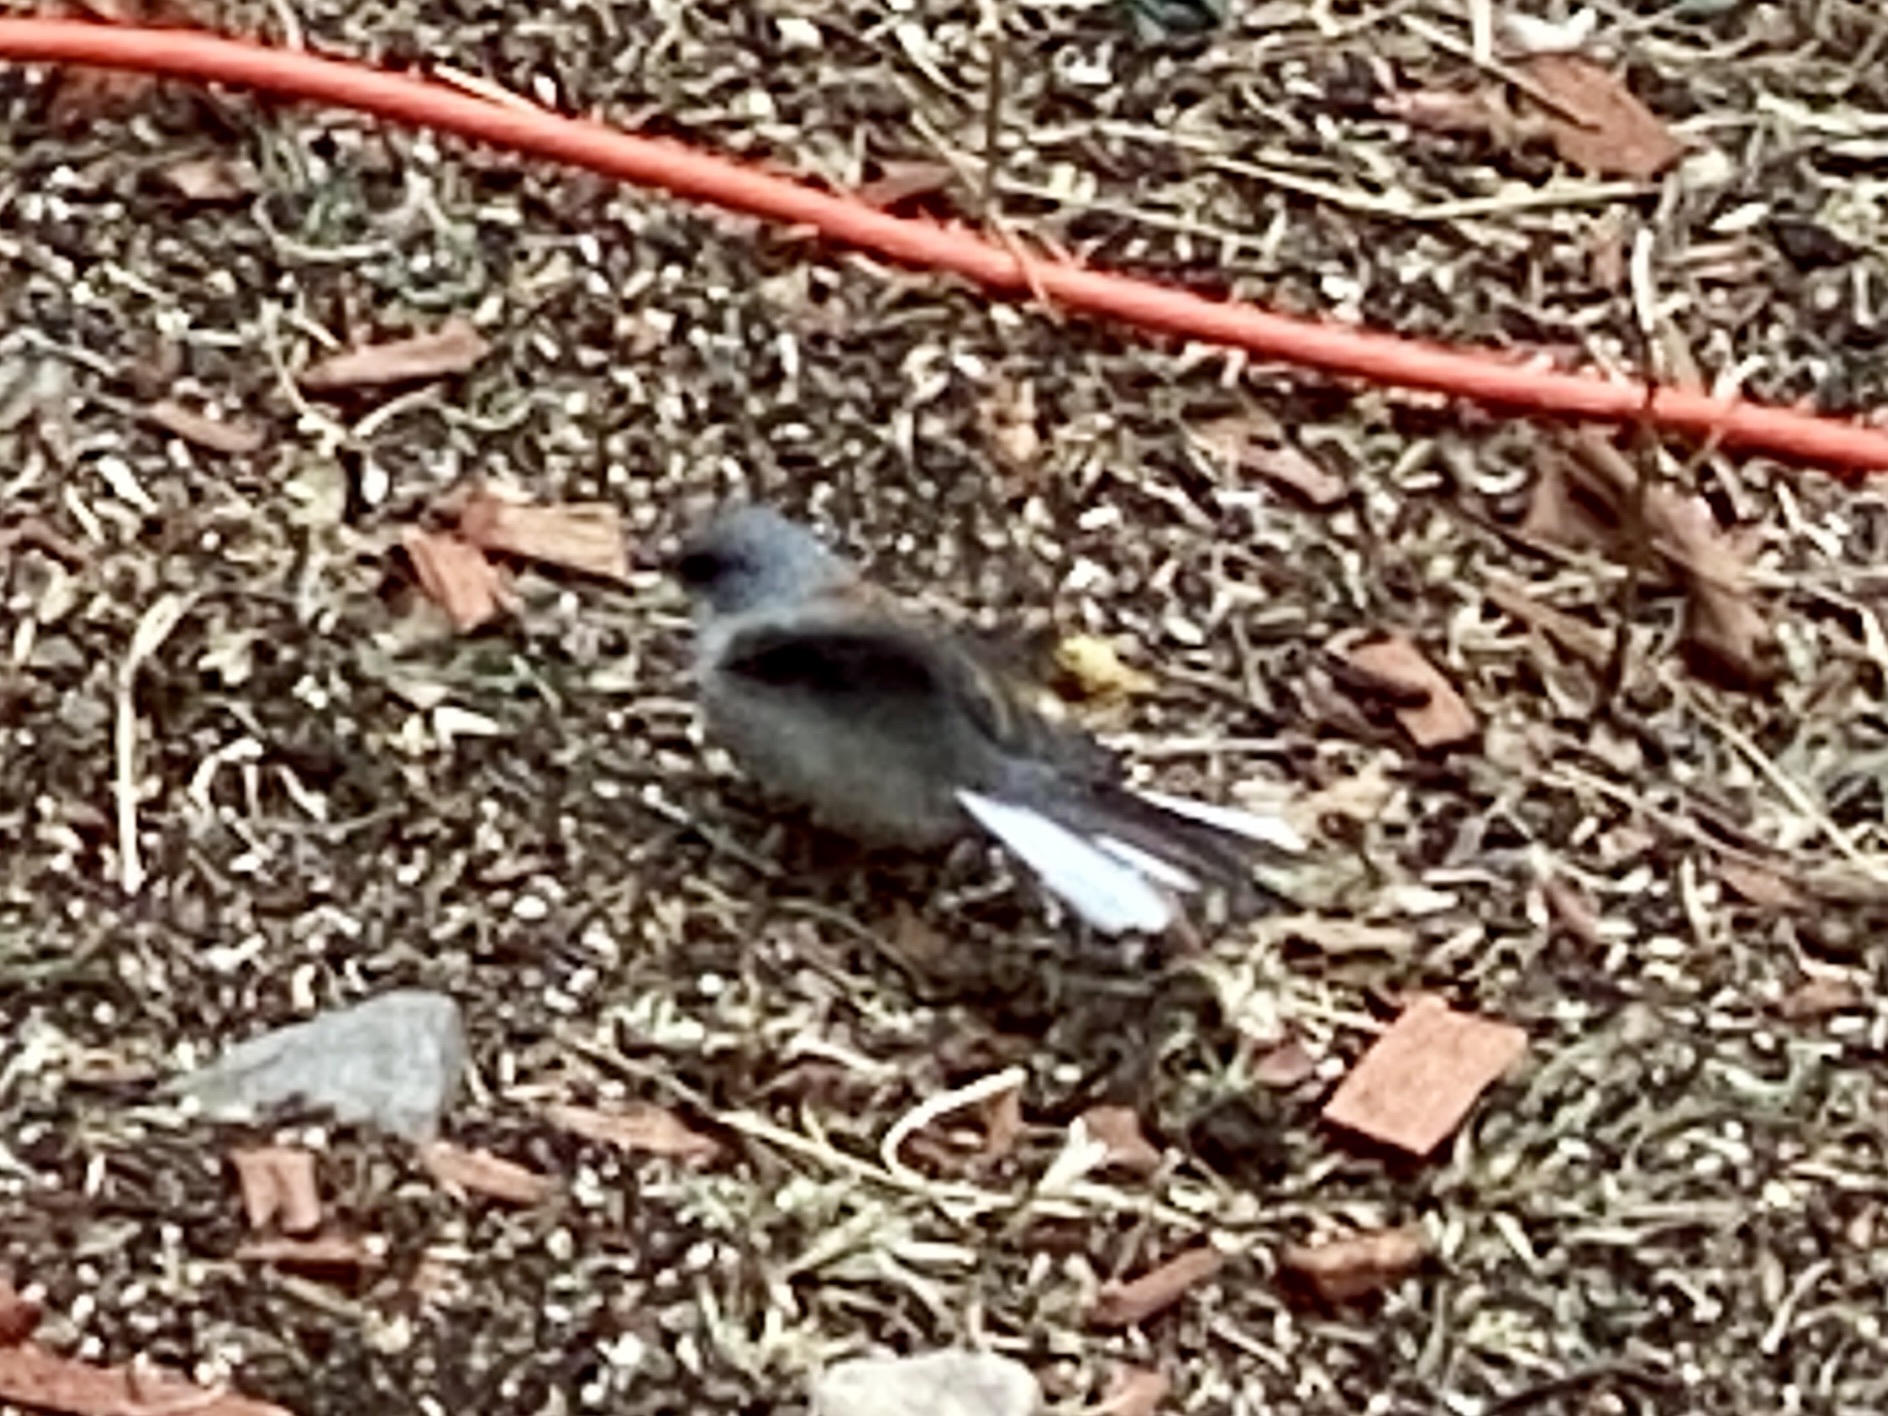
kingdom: Animalia
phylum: Chordata
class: Aves
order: Passeriformes
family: Passerellidae
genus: Junco
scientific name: Junco hyemalis
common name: Dark-eyed junco
